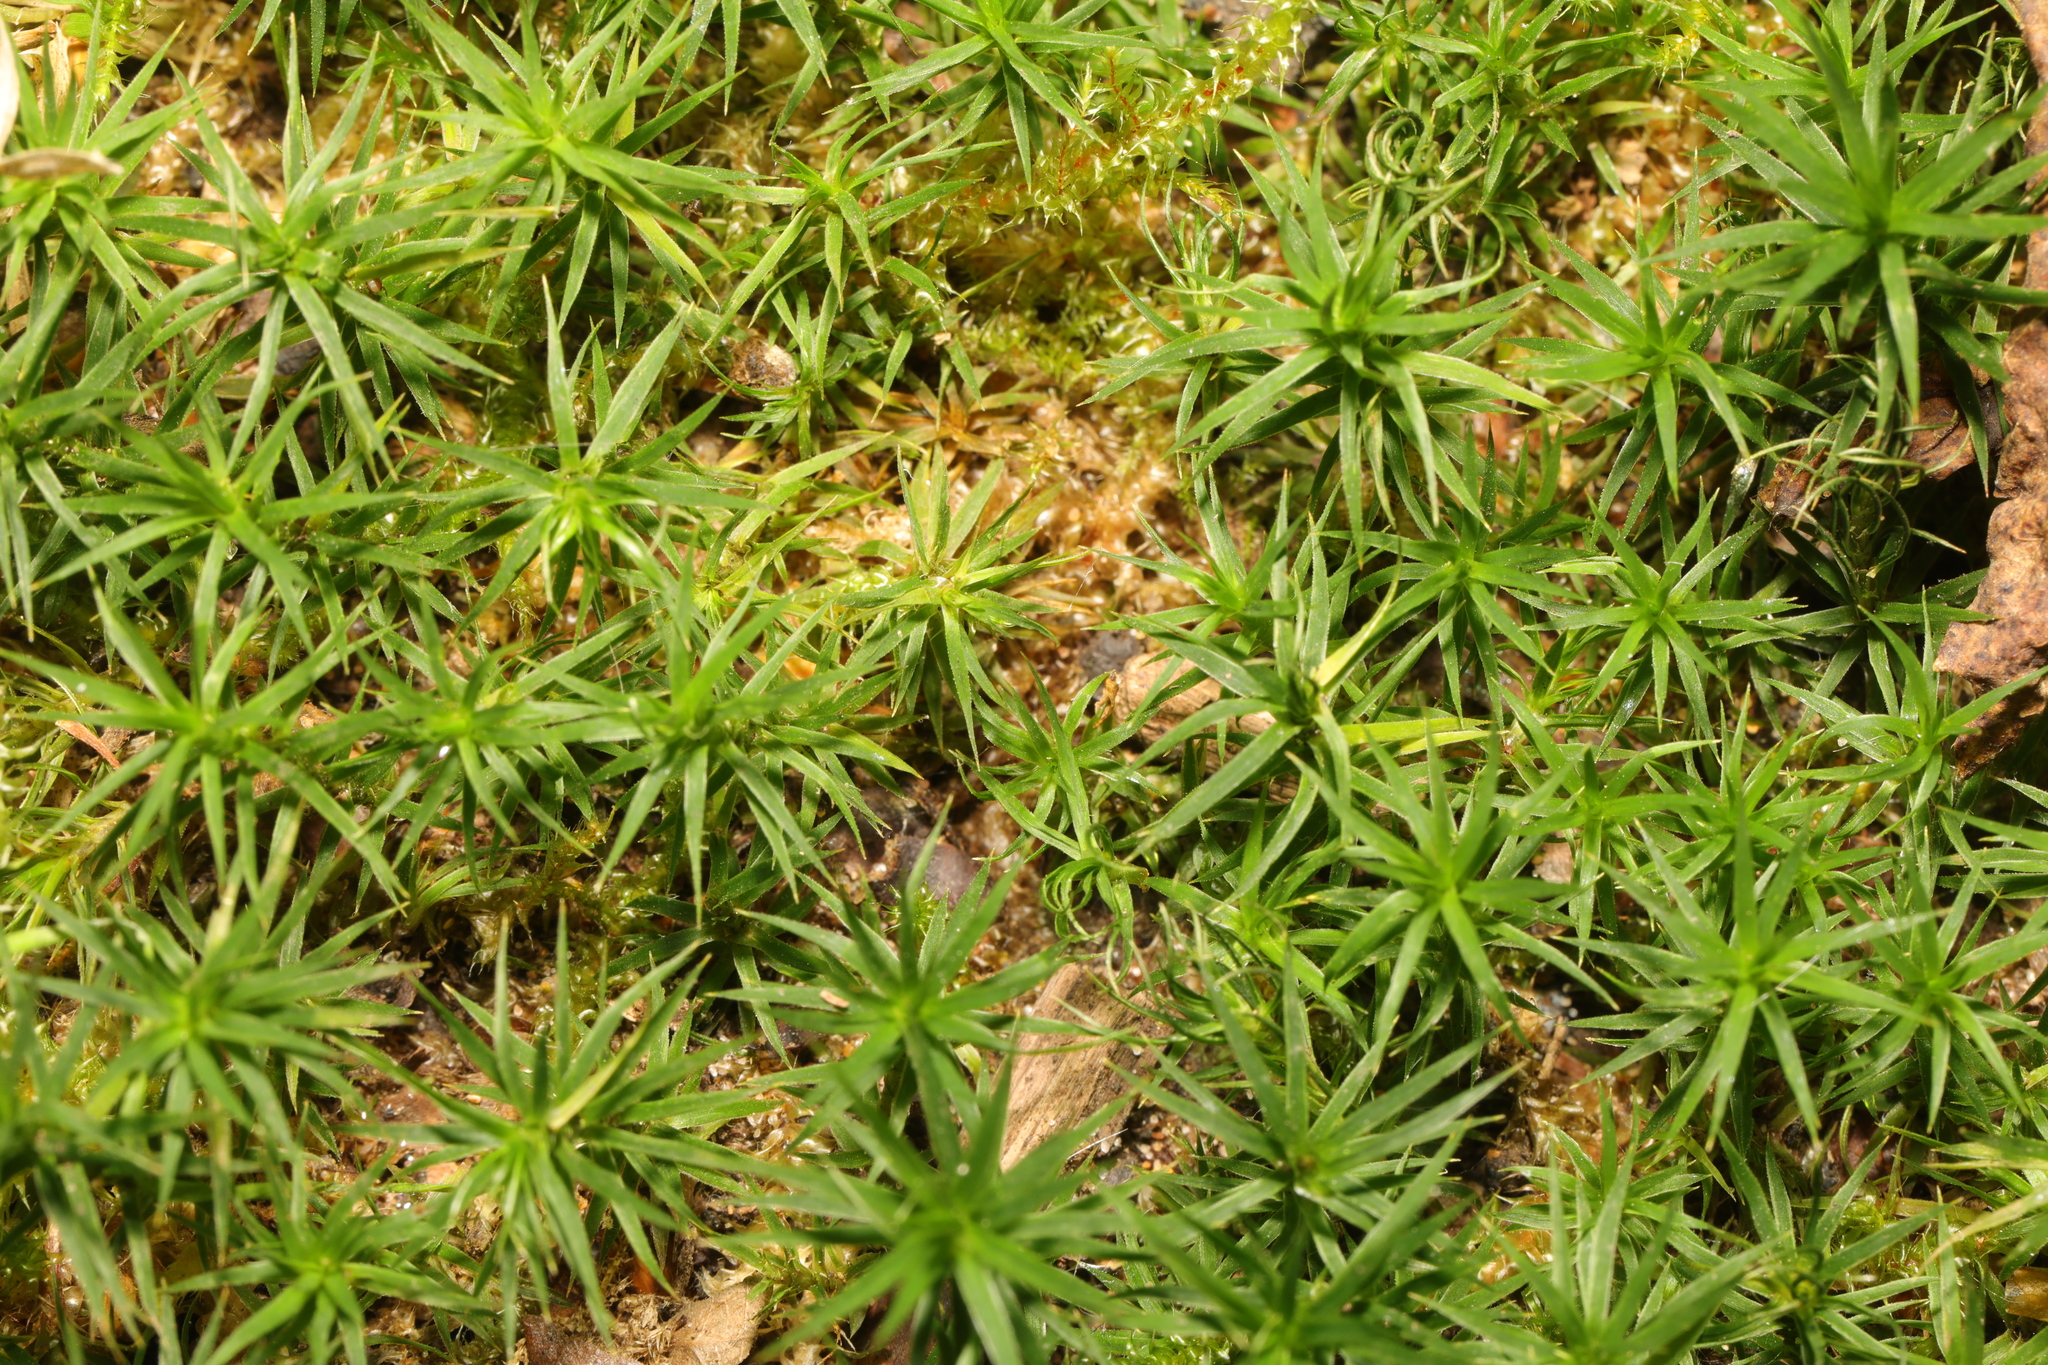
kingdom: Plantae
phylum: Bryophyta
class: Polytrichopsida
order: Polytrichales
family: Polytrichaceae
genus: Polytrichum
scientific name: Polytrichum formosum
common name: Bank haircap moss
